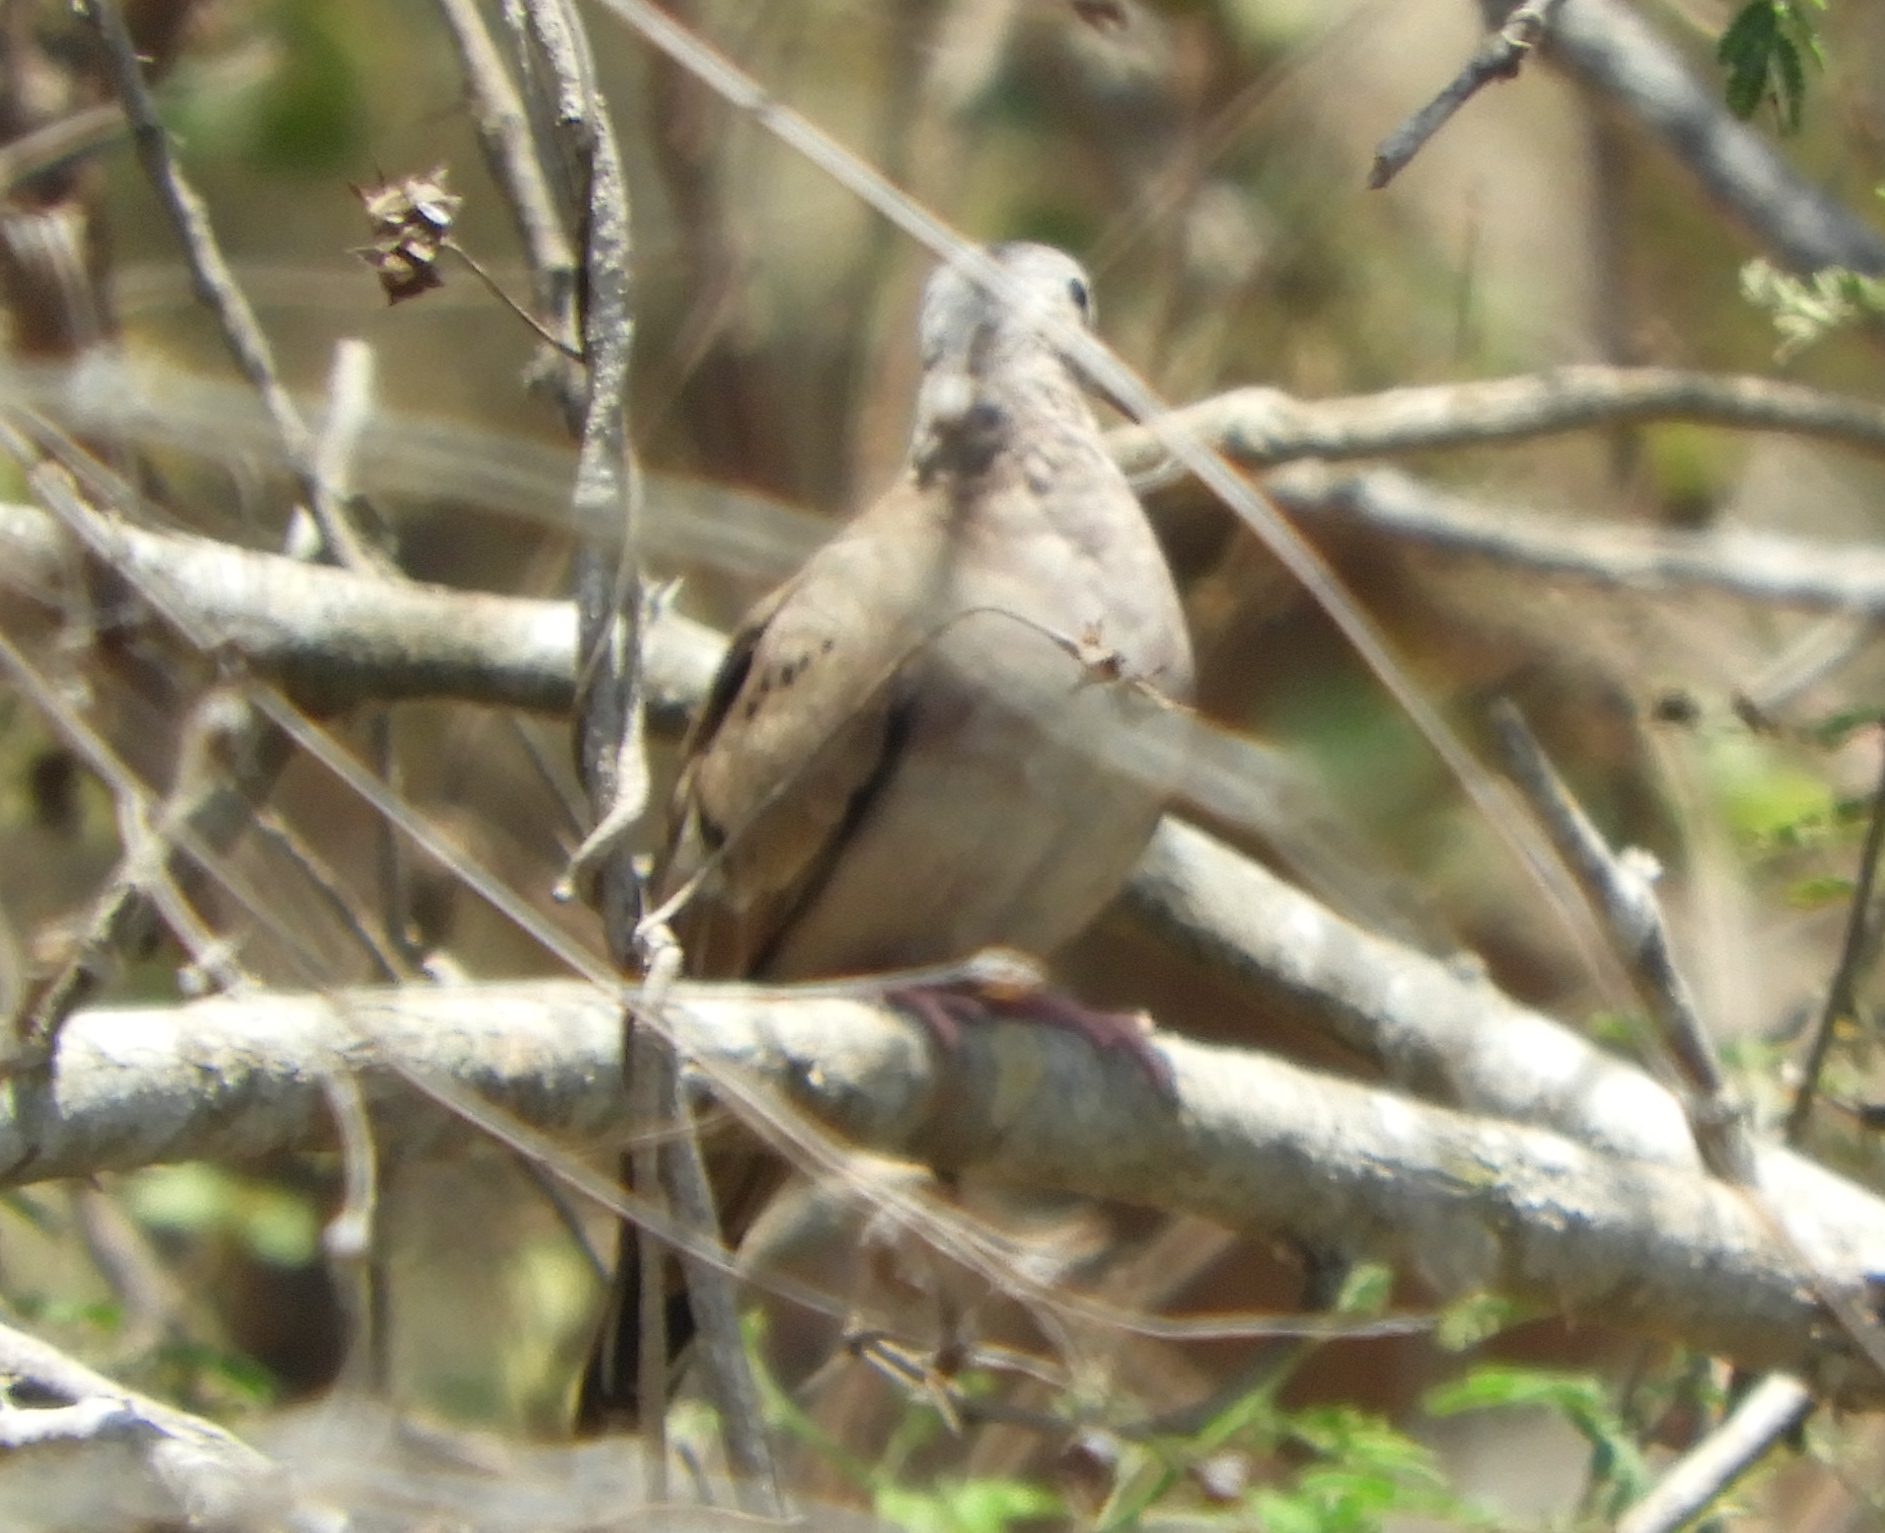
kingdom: Animalia
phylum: Chordata
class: Aves
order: Columbiformes
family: Columbidae
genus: Columbina
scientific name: Columbina talpacoti
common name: Ruddy ground dove
